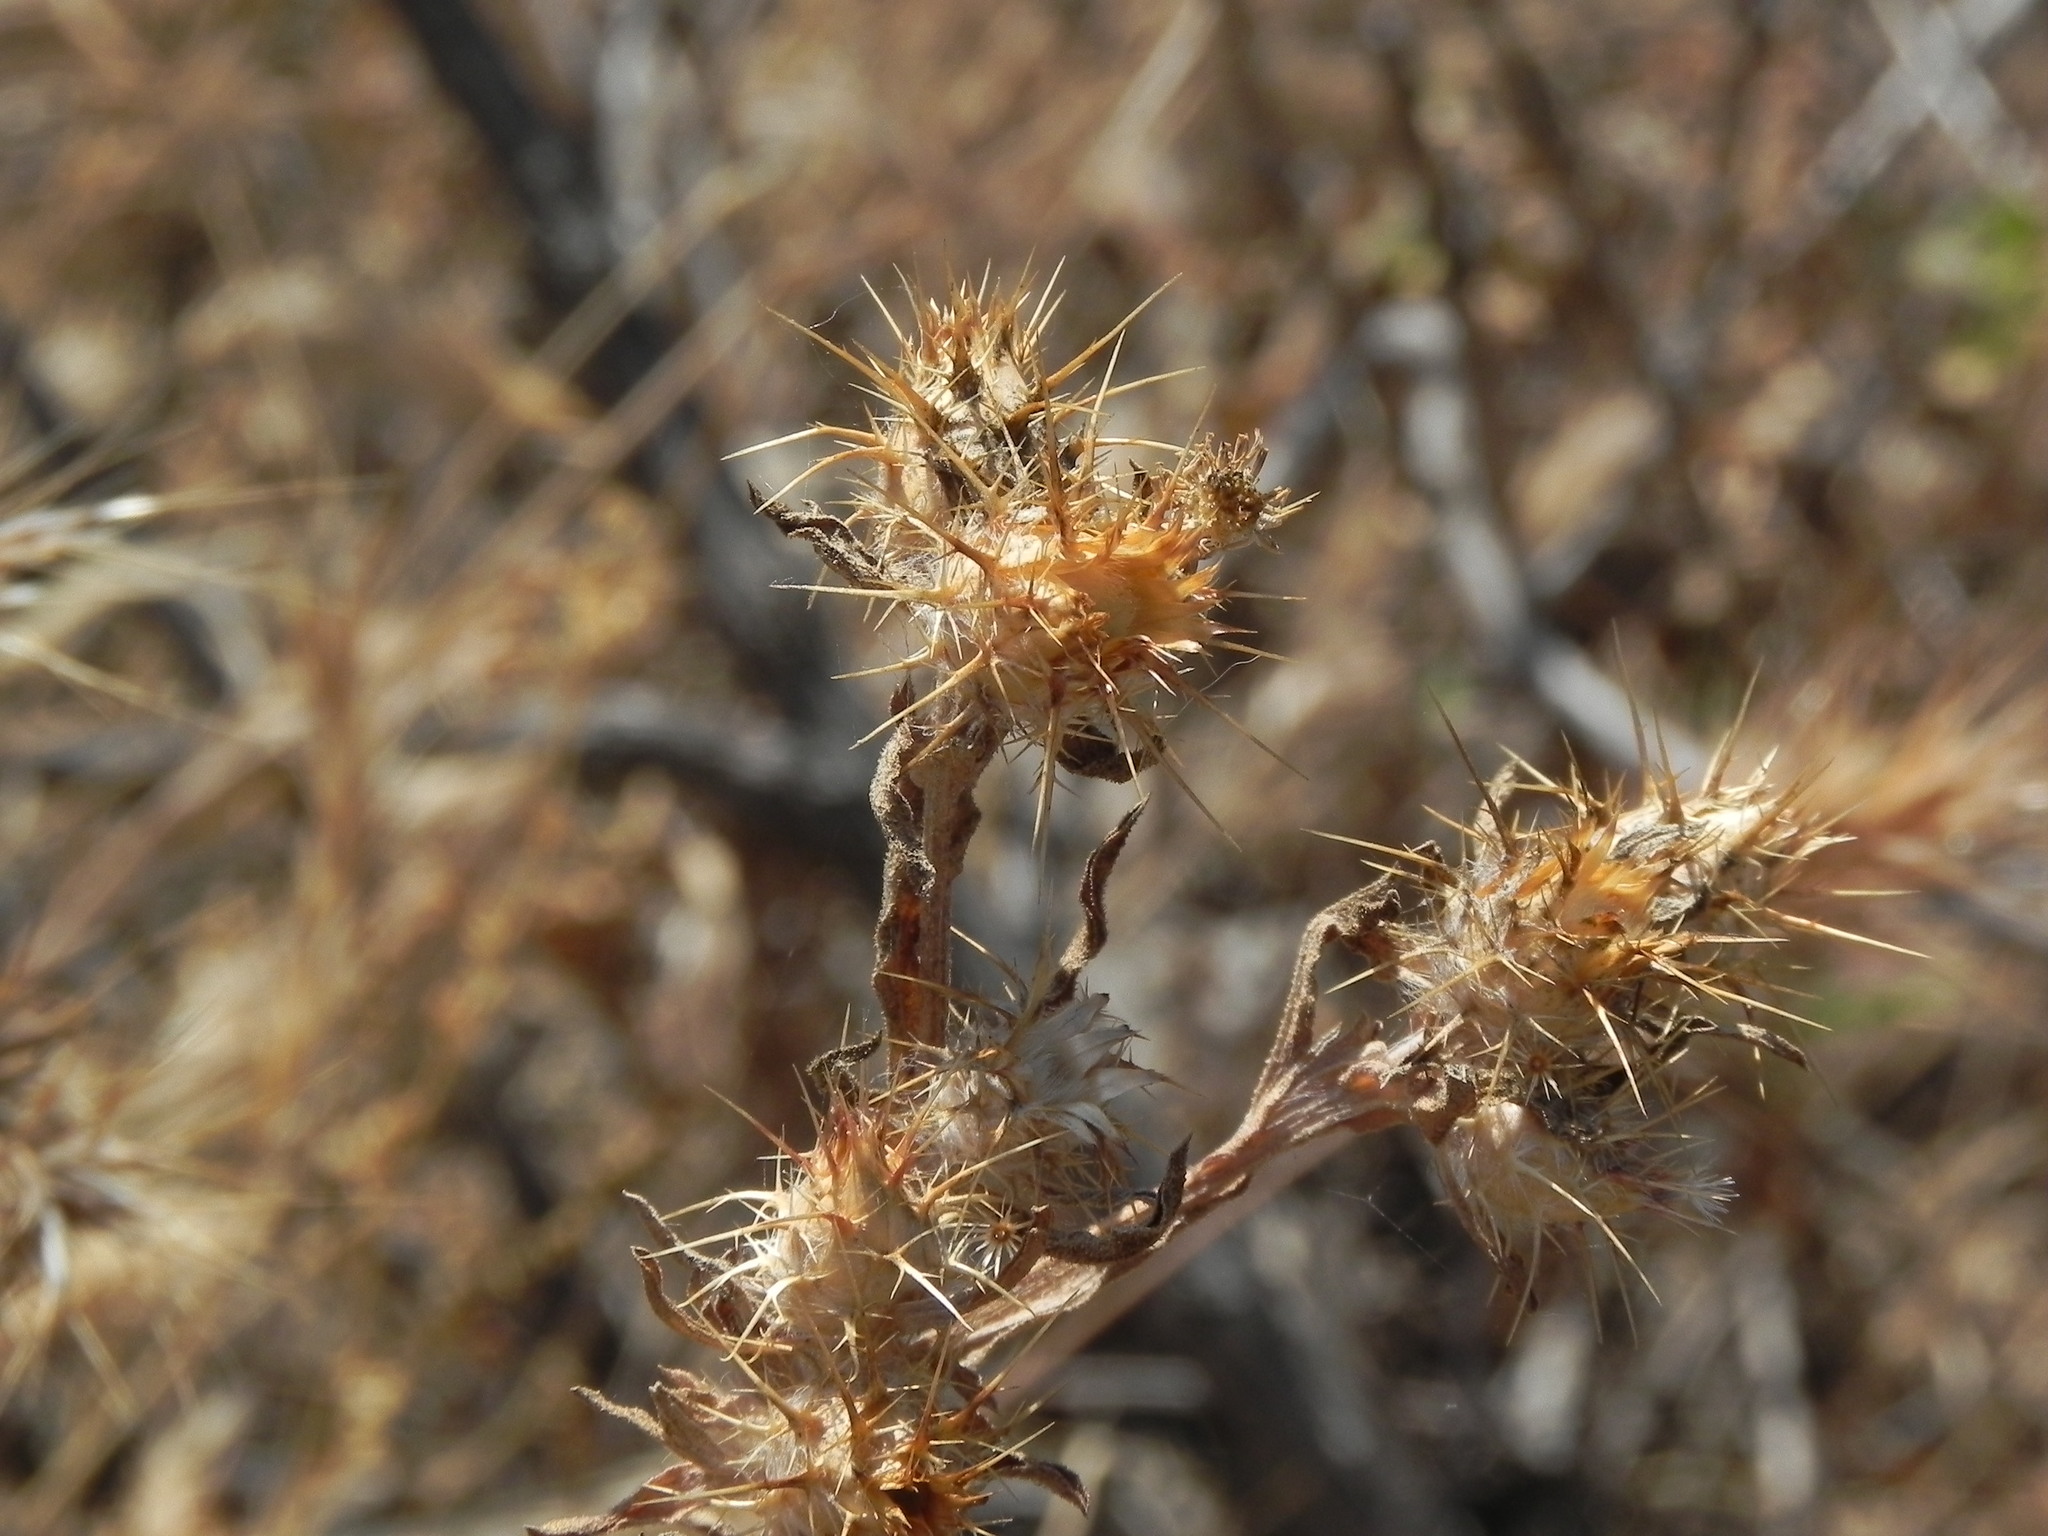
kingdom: Plantae
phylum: Tracheophyta
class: Magnoliopsida
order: Asterales
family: Asteraceae
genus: Centaurea
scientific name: Centaurea melitensis
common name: Maltese star-thistle
